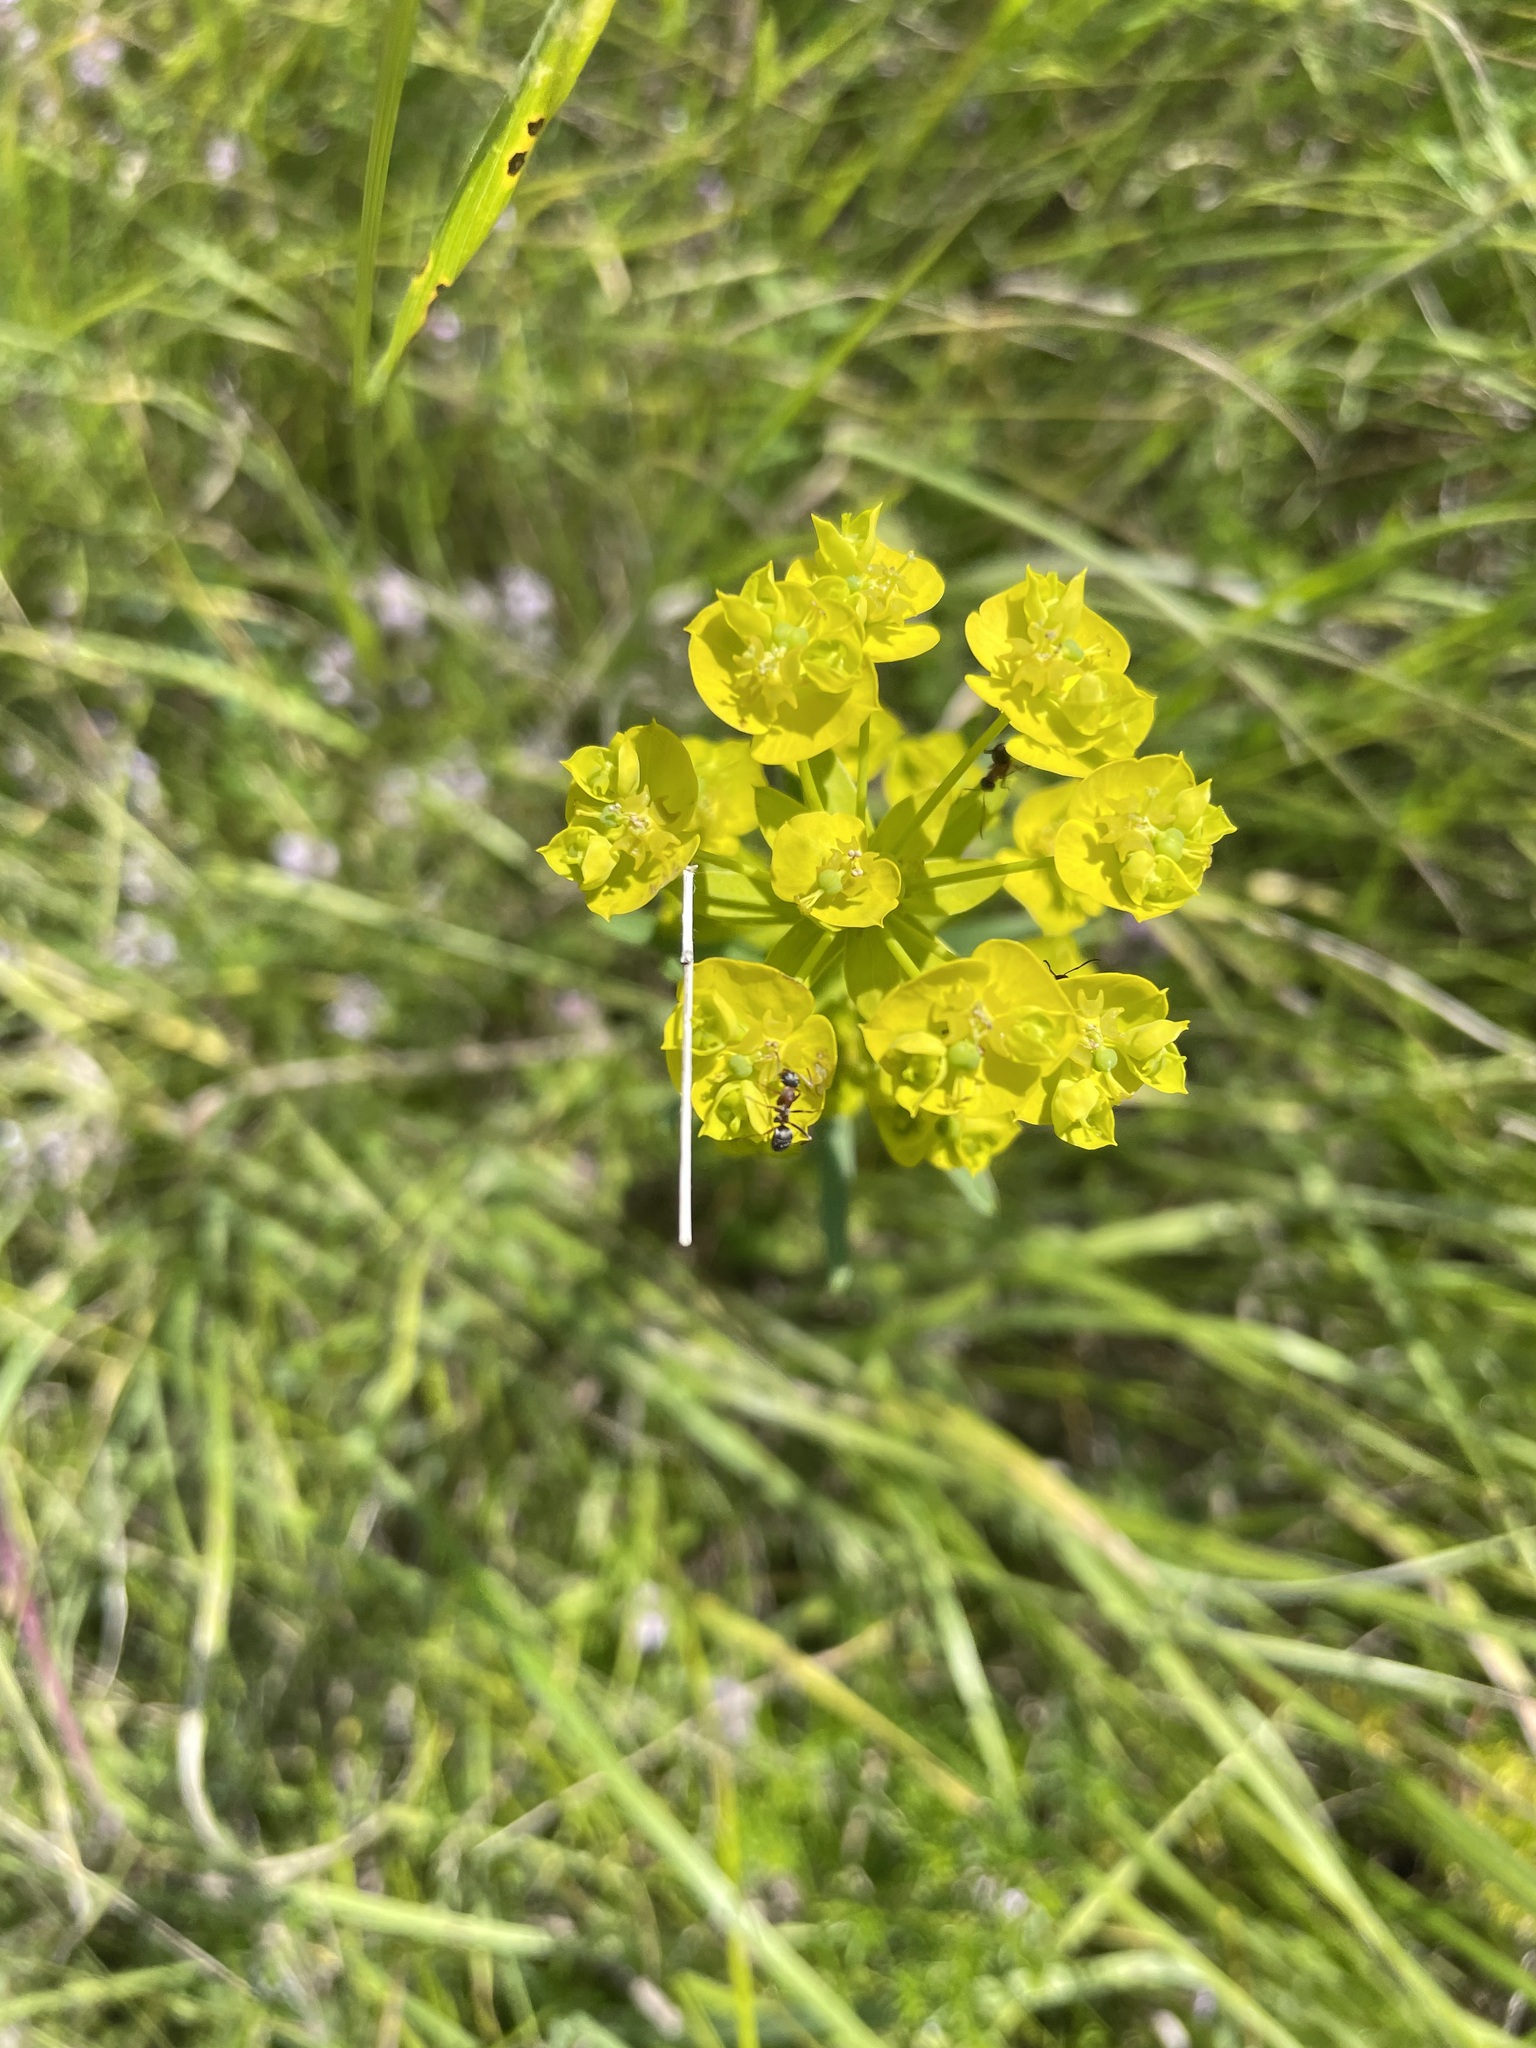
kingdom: Plantae
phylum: Tracheophyta
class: Magnoliopsida
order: Malpighiales
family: Euphorbiaceae
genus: Euphorbia
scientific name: Euphorbia virgata
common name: Leafy spurge
